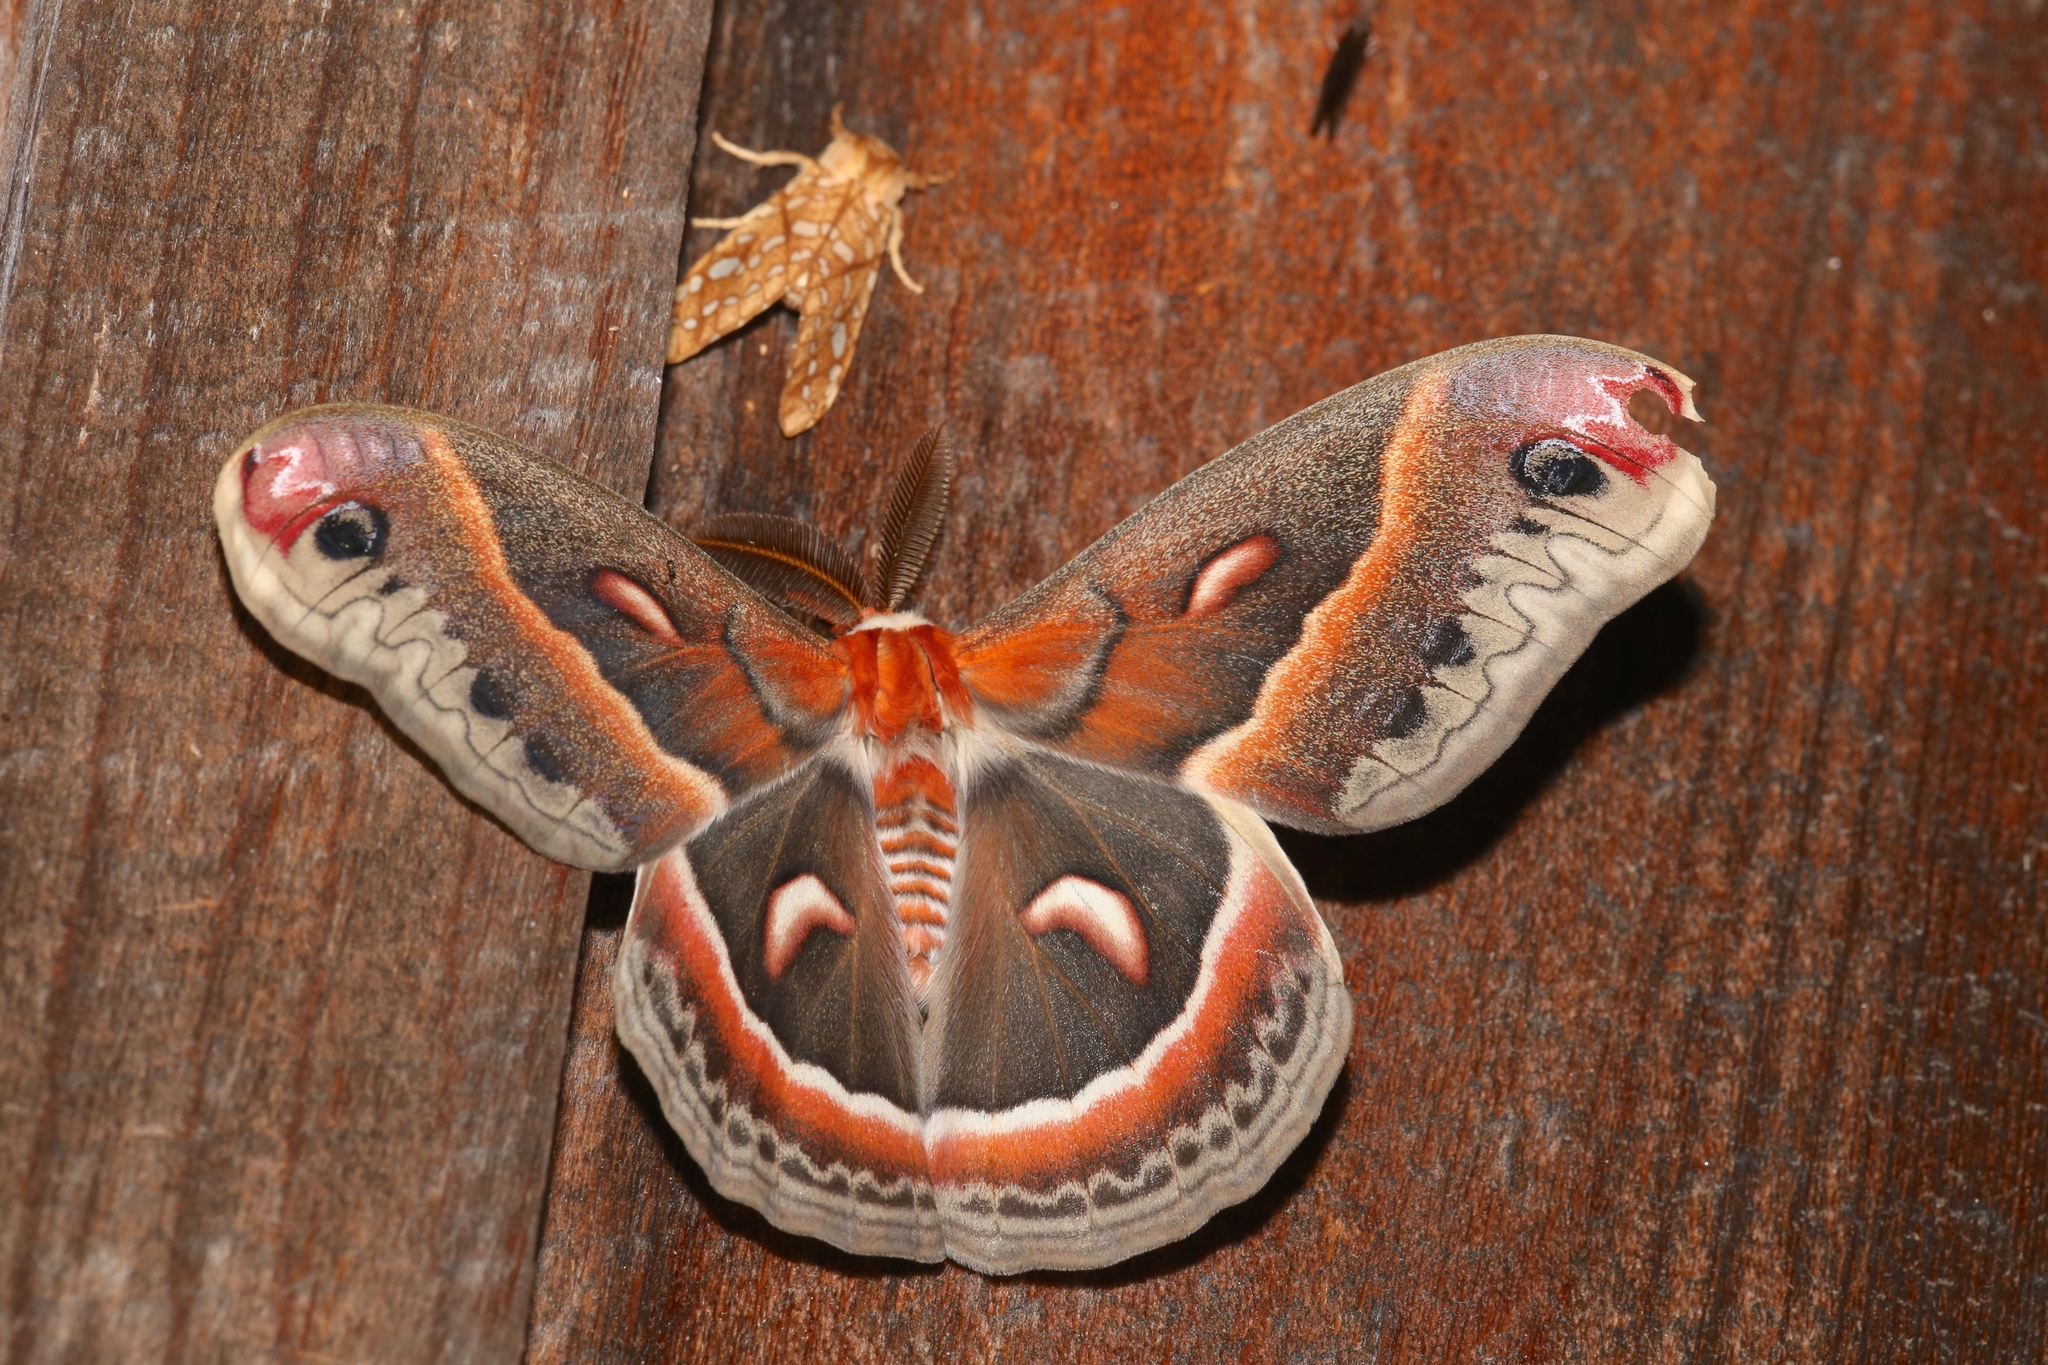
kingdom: Animalia
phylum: Arthropoda
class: Insecta
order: Lepidoptera
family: Saturniidae
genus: Hyalophora
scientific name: Hyalophora cecropia
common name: Cecropia silkmoth
